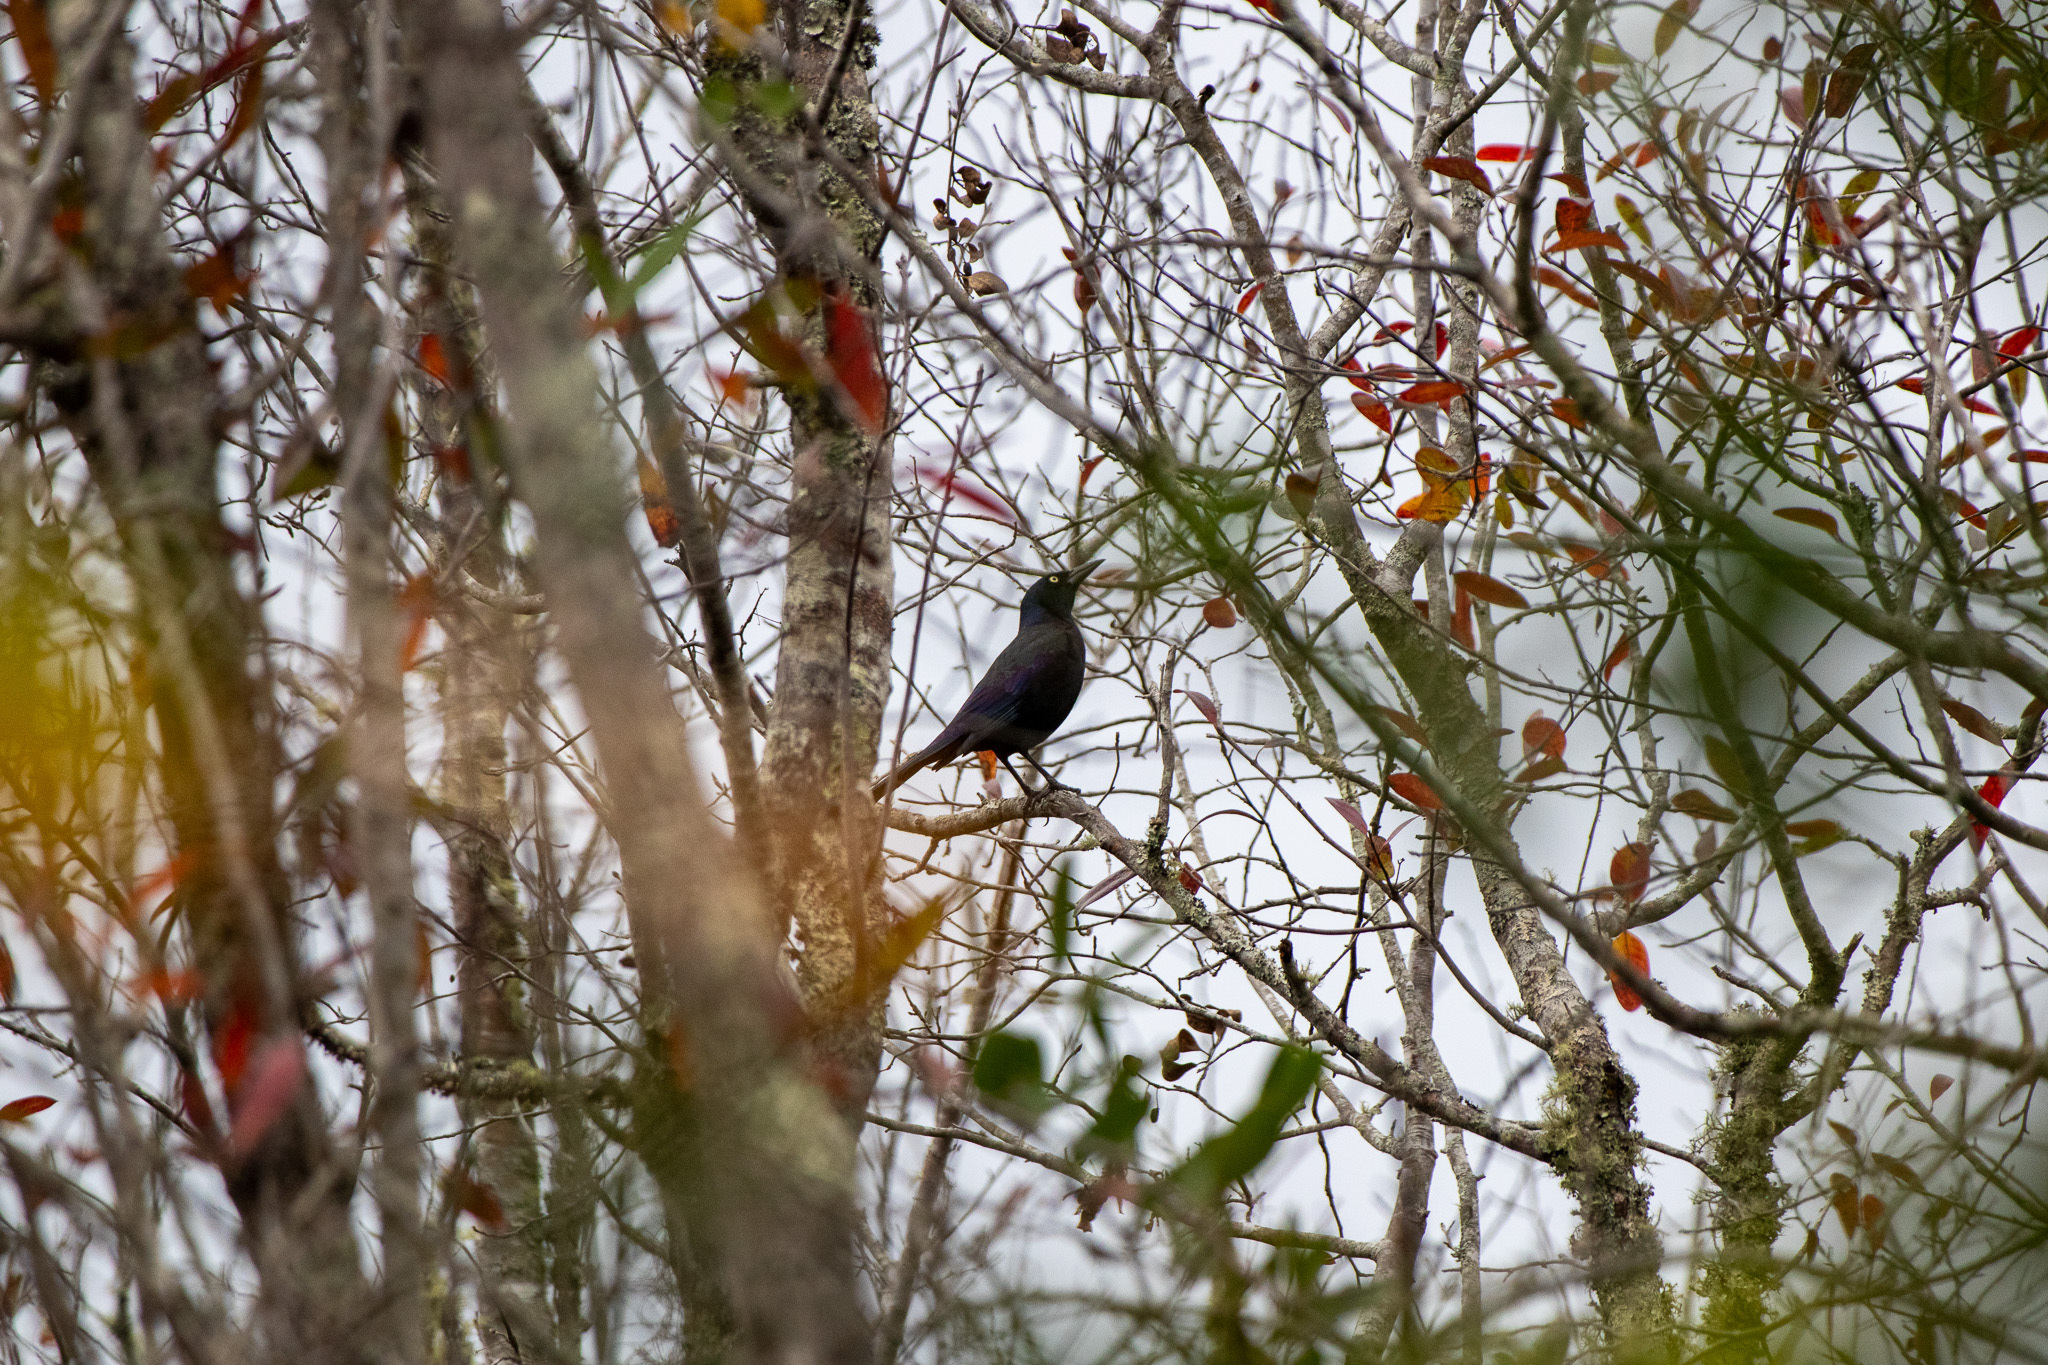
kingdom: Animalia
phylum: Chordata
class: Aves
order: Passeriformes
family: Icteridae
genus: Quiscalus
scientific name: Quiscalus quiscula
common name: Common grackle
